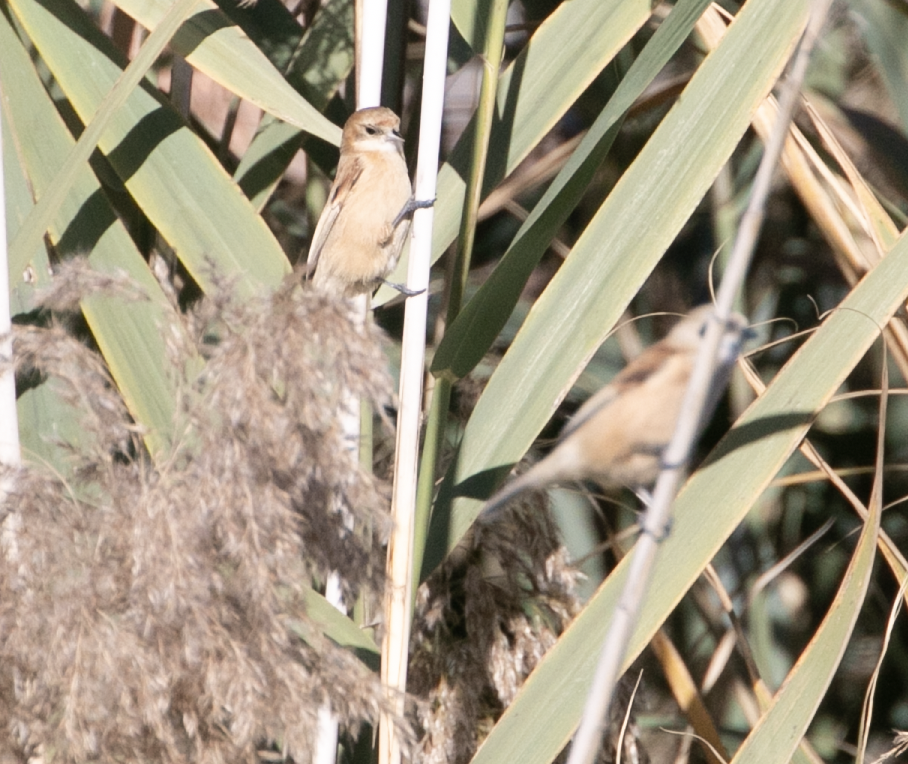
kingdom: Animalia
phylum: Chordata
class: Aves
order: Passeriformes
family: Remizidae
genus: Remiz
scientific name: Remiz pendulinus
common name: Eurasian penduline tit
